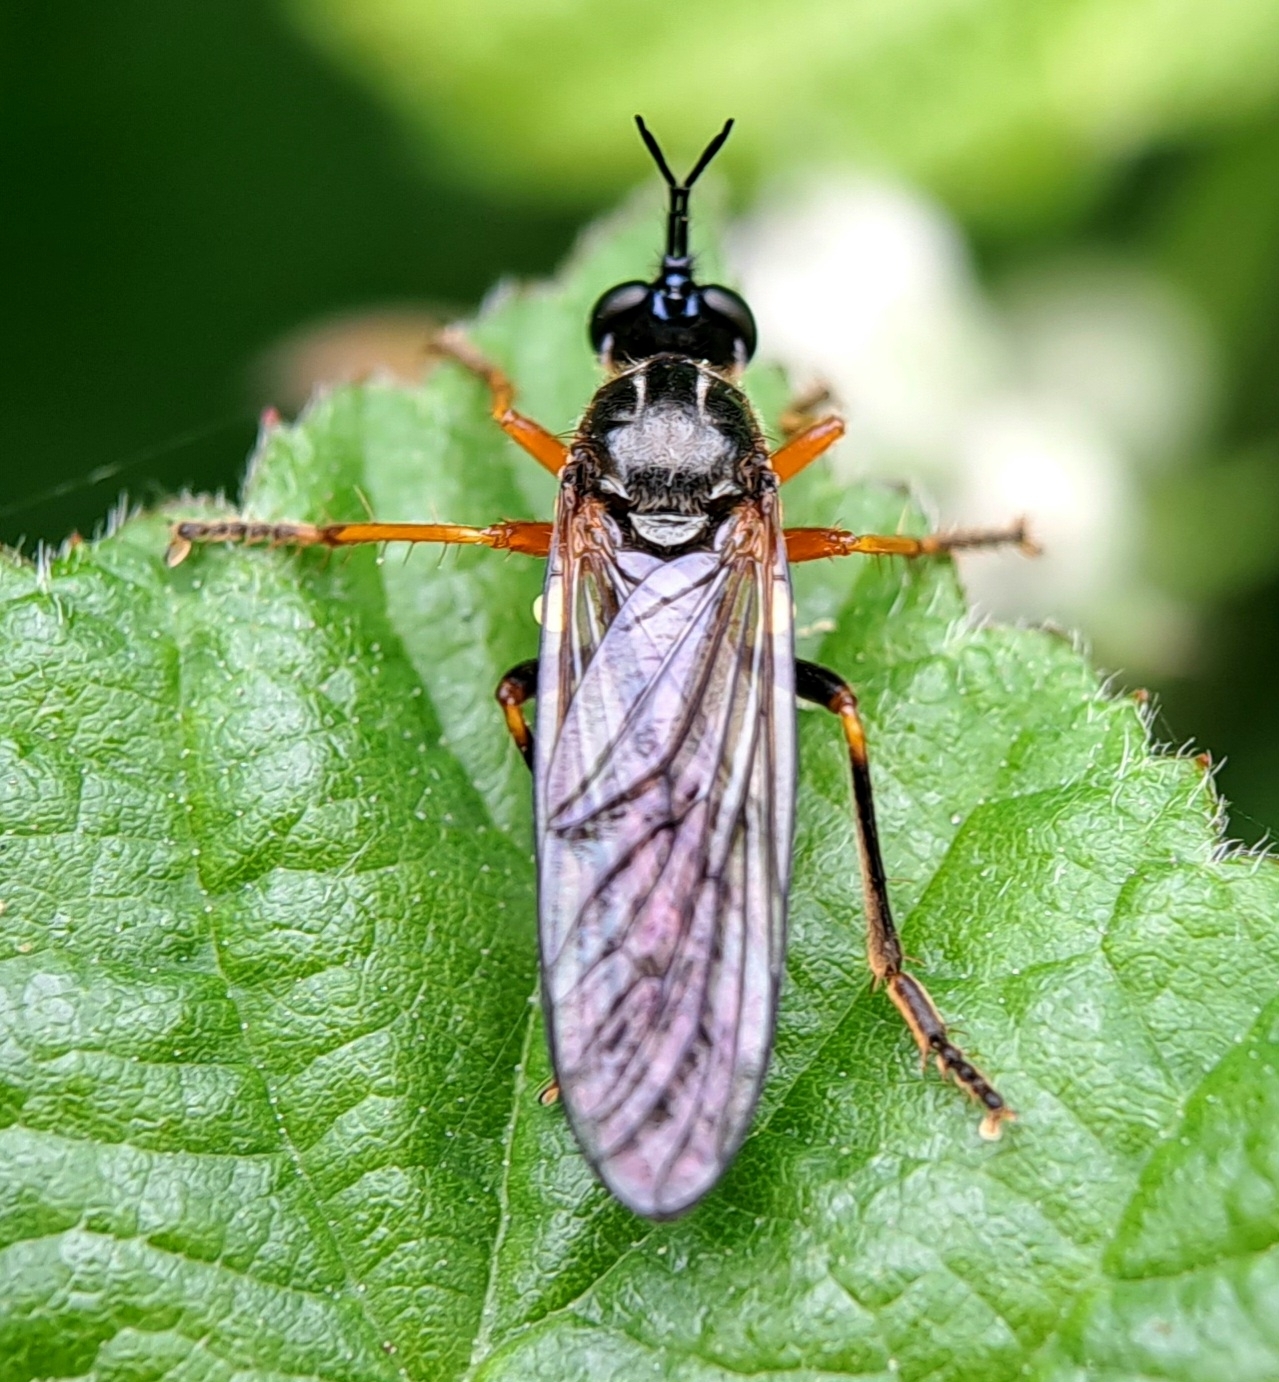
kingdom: Animalia
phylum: Arthropoda
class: Insecta
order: Diptera
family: Asilidae
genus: Dioctria
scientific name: Dioctria rufipes
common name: Common red-legged robberfly
